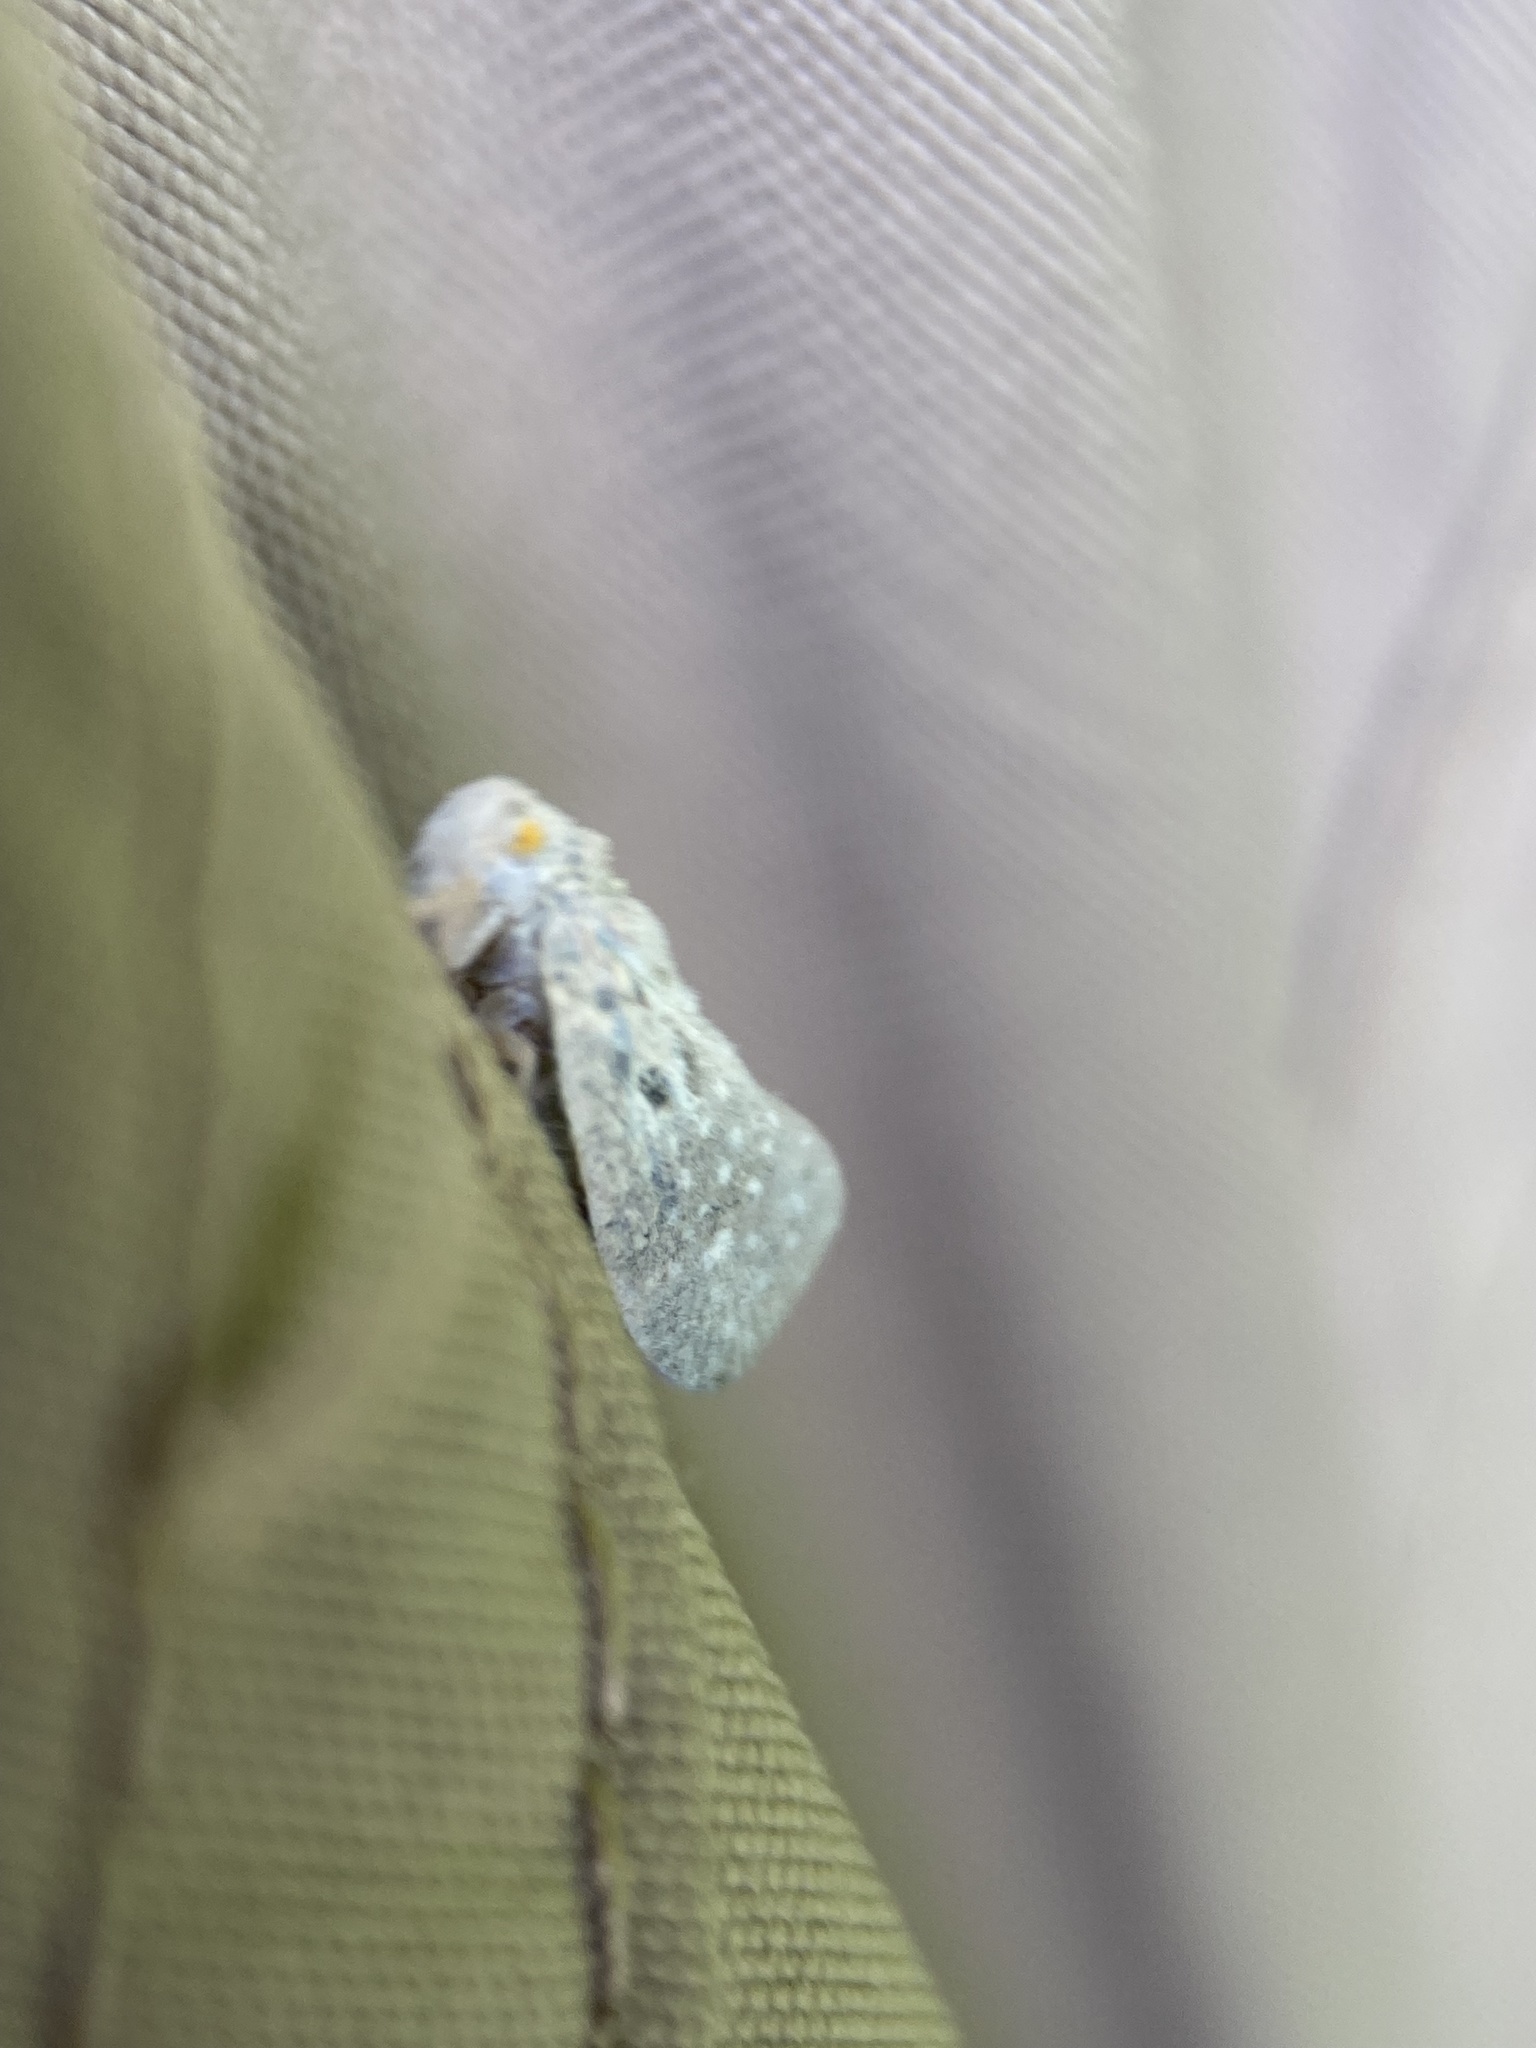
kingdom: Animalia
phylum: Arthropoda
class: Insecta
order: Hemiptera
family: Flatidae
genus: Metcalfa
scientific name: Metcalfa pruinosa
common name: Citrus flatid planthopper
